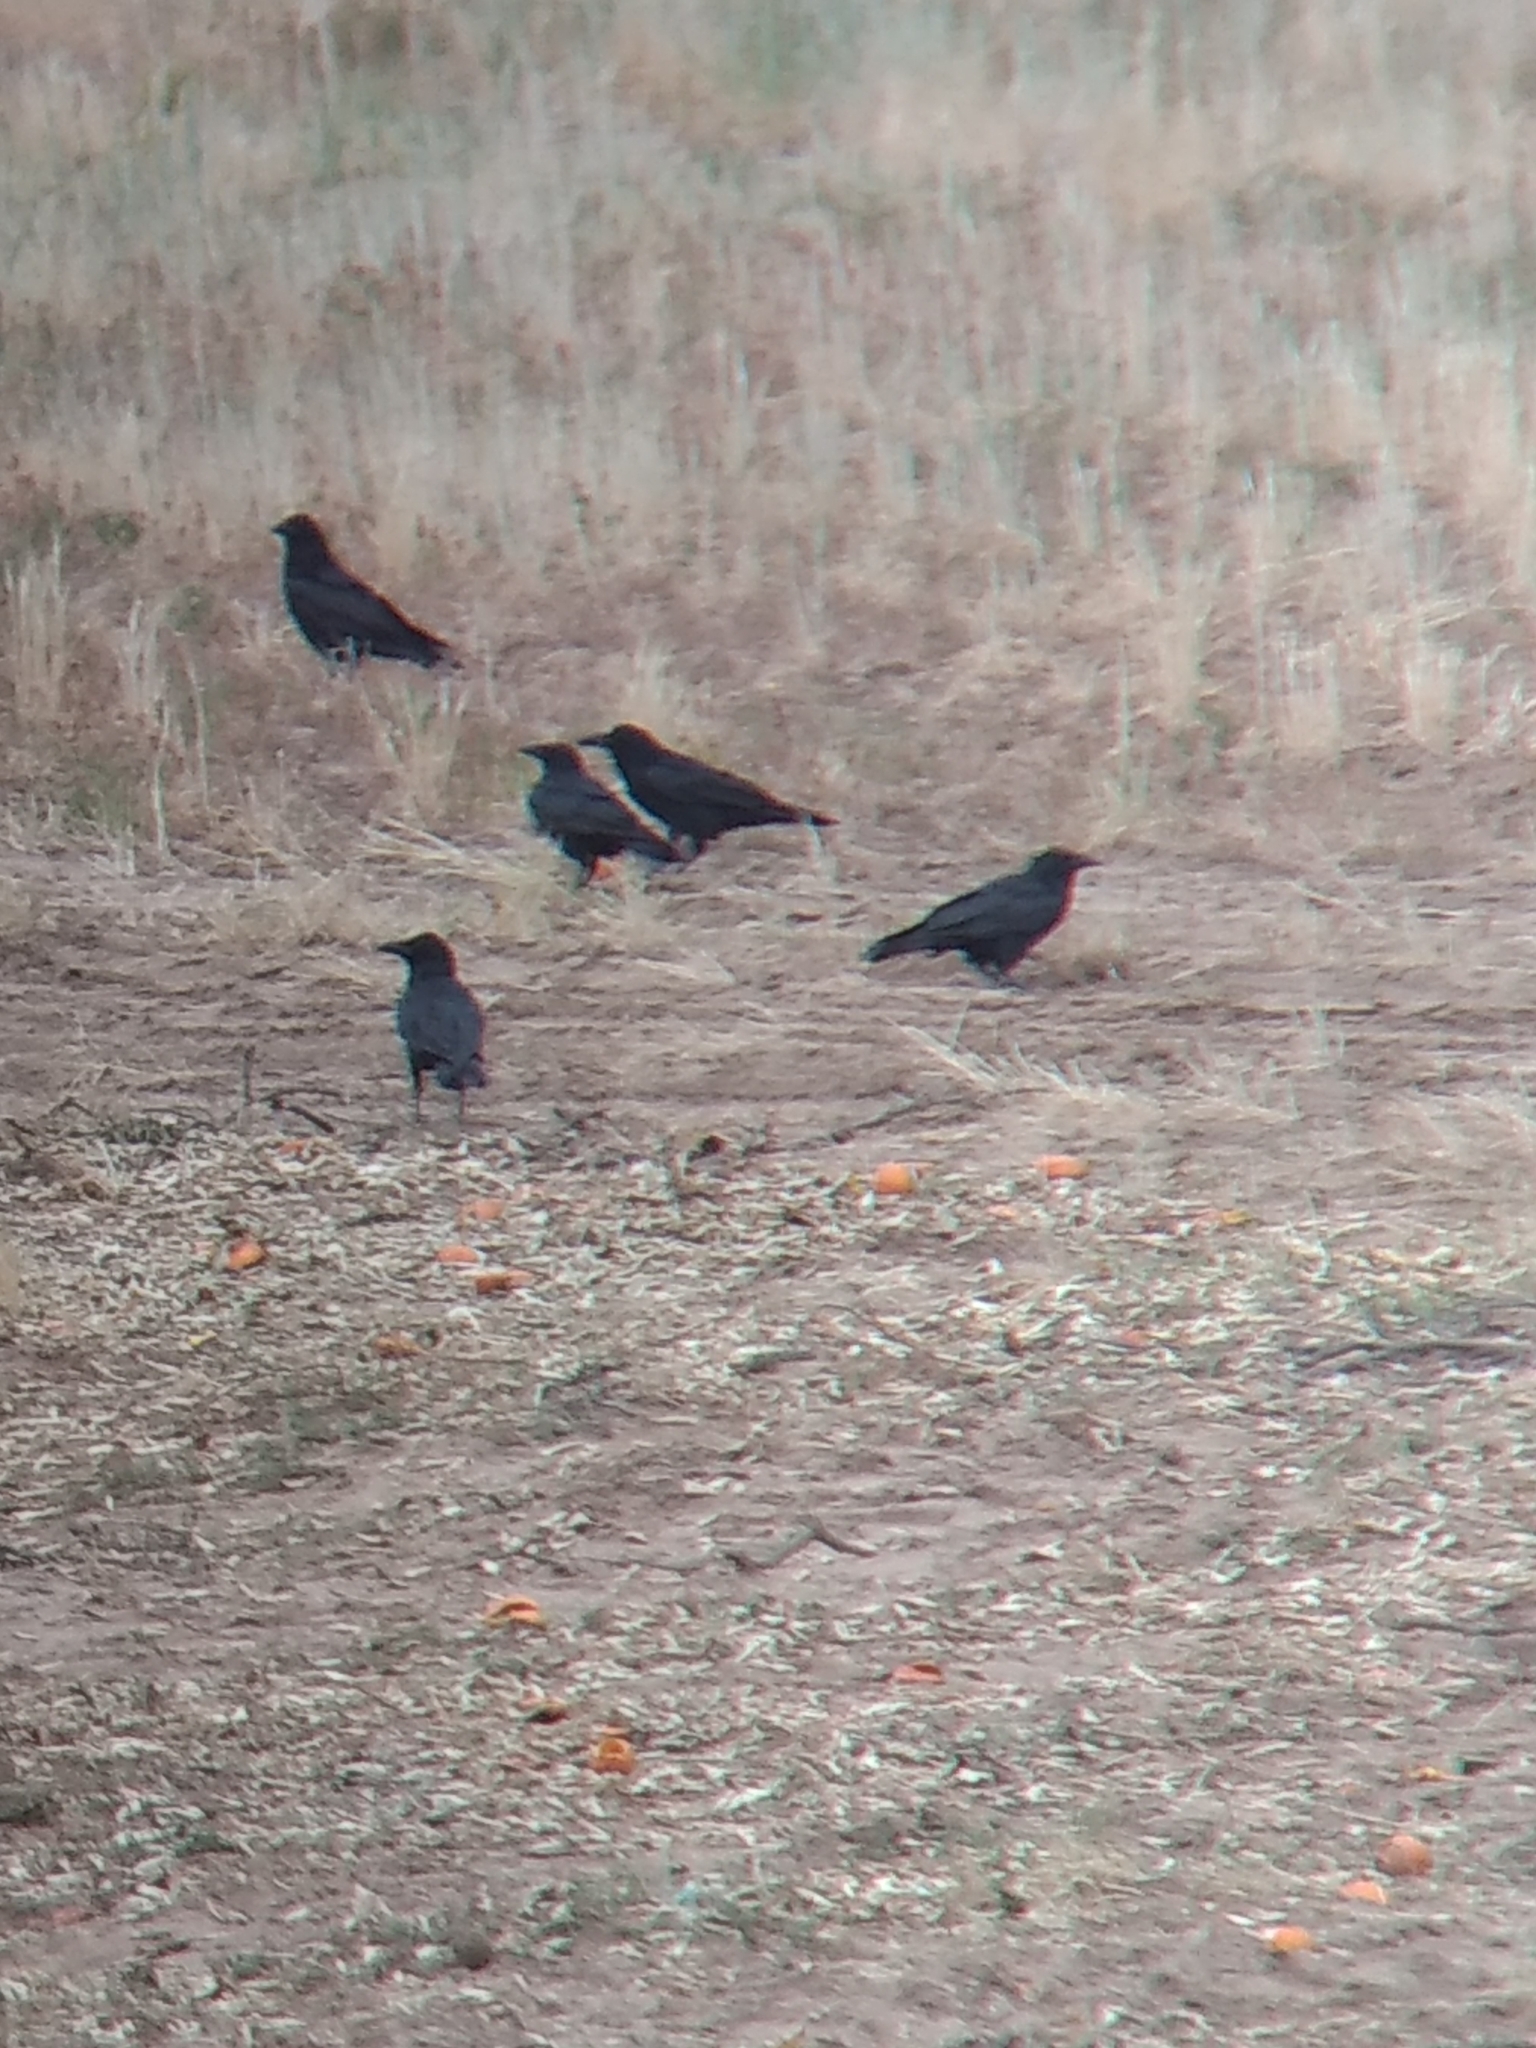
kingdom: Animalia
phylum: Chordata
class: Aves
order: Passeriformes
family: Corvidae
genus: Corvus
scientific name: Corvus brachyrhynchos
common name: American crow
